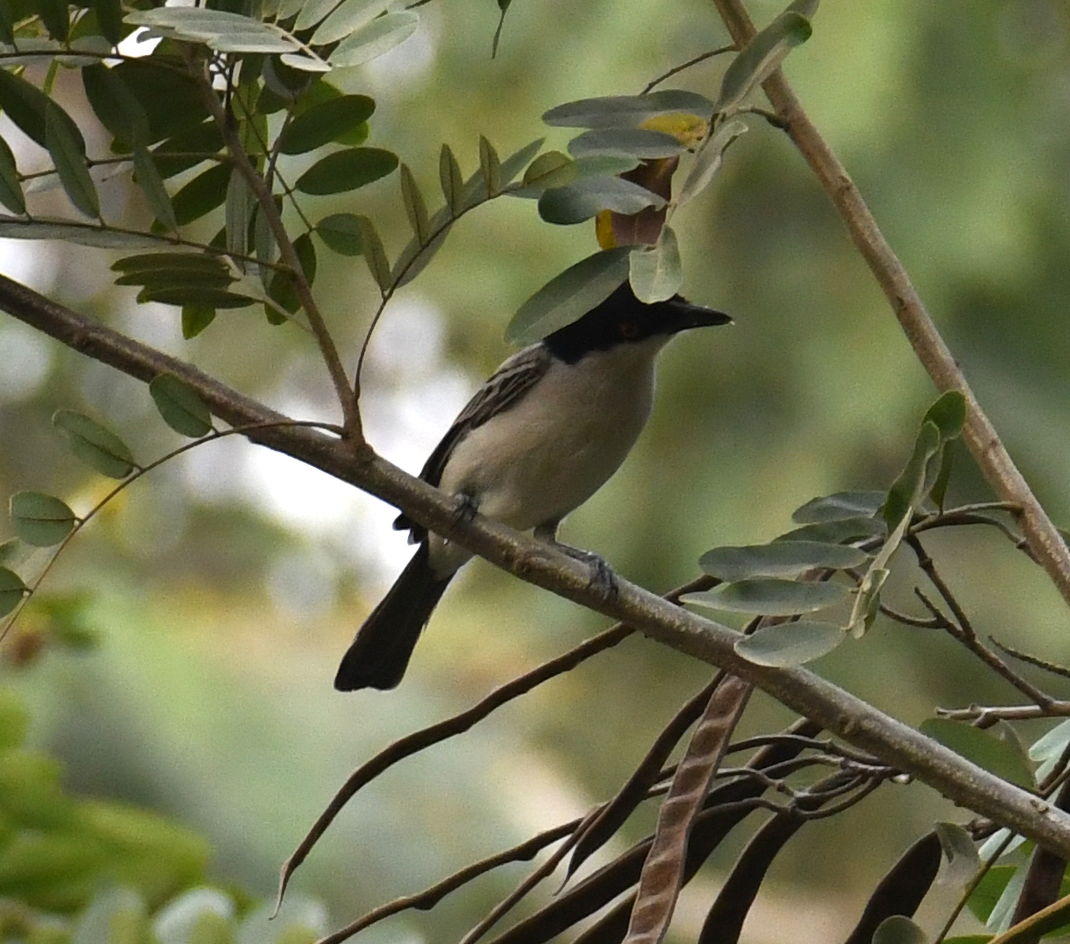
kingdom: Animalia
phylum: Chordata
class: Aves
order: Passeriformes
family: Malaconotidae
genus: Dryoscopus
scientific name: Dryoscopus gambensis
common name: Northern puffback
